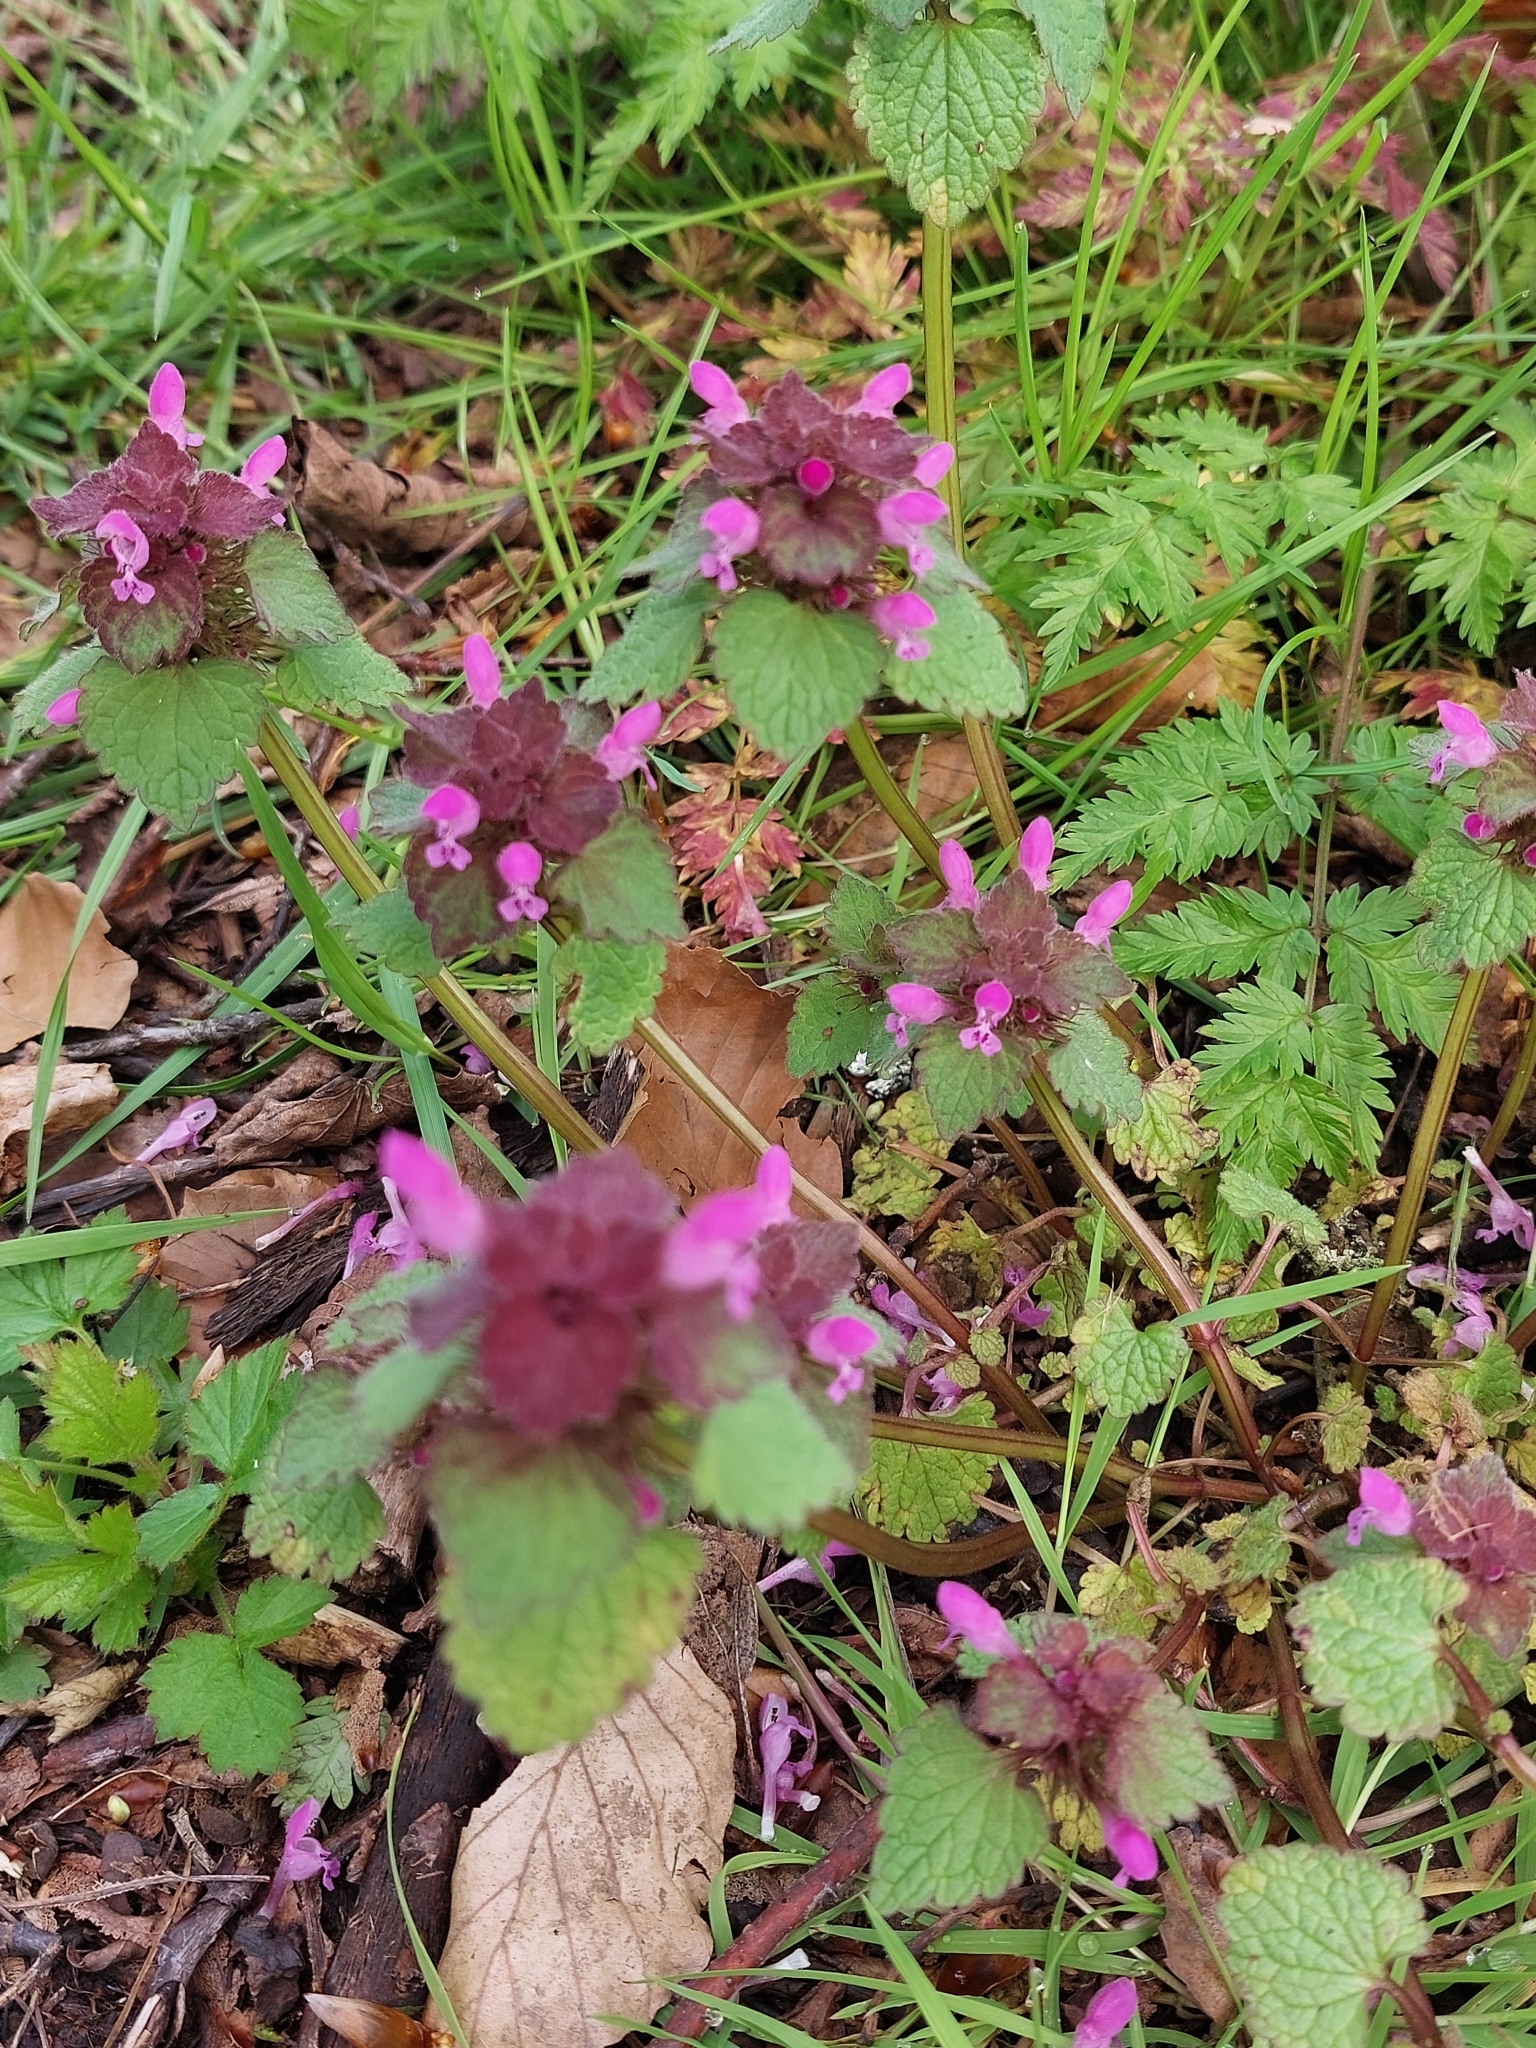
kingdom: Plantae
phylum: Tracheophyta
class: Magnoliopsida
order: Lamiales
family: Lamiaceae
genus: Lamium
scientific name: Lamium purpureum
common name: Red dead-nettle
